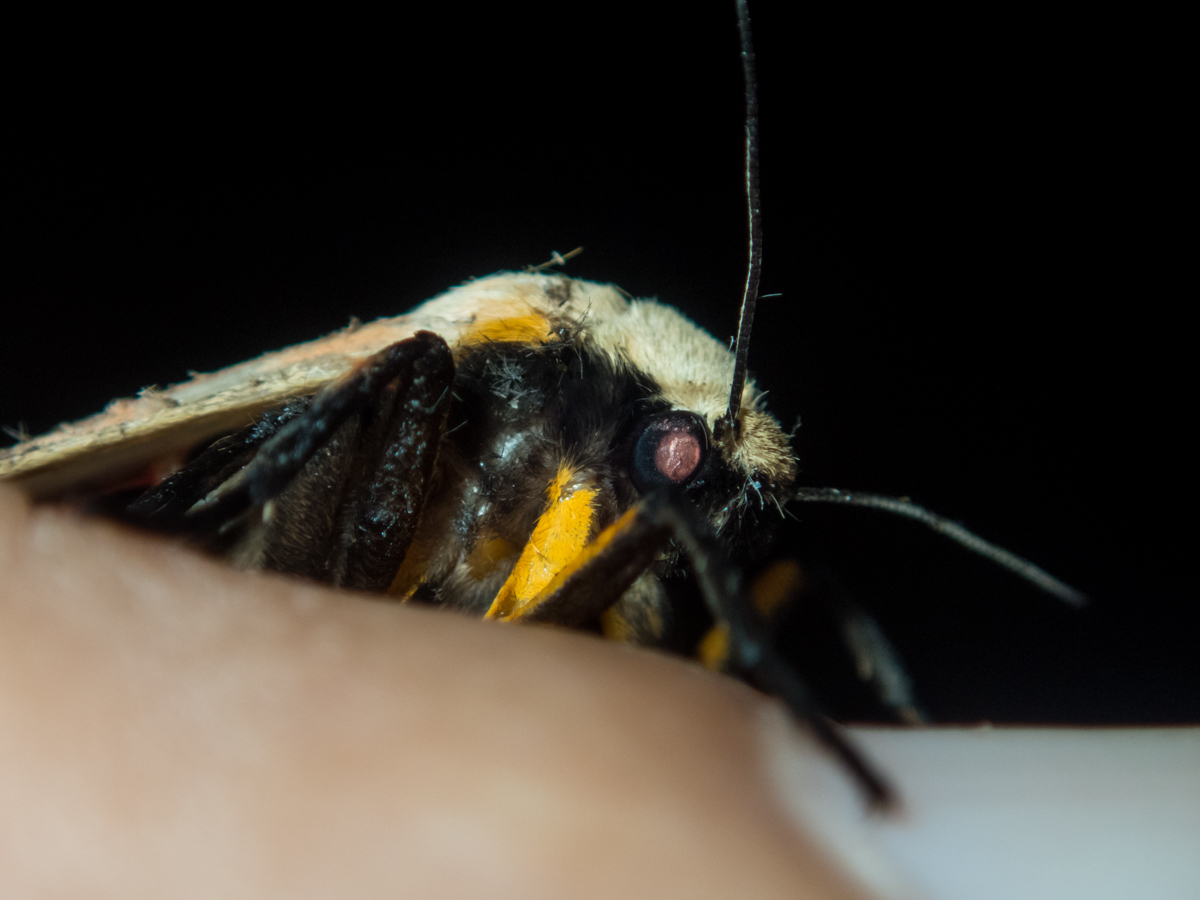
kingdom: Animalia
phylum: Arthropoda
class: Insecta
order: Lepidoptera
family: Erebidae
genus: Creatonotos
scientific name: Creatonotos fasciatus
